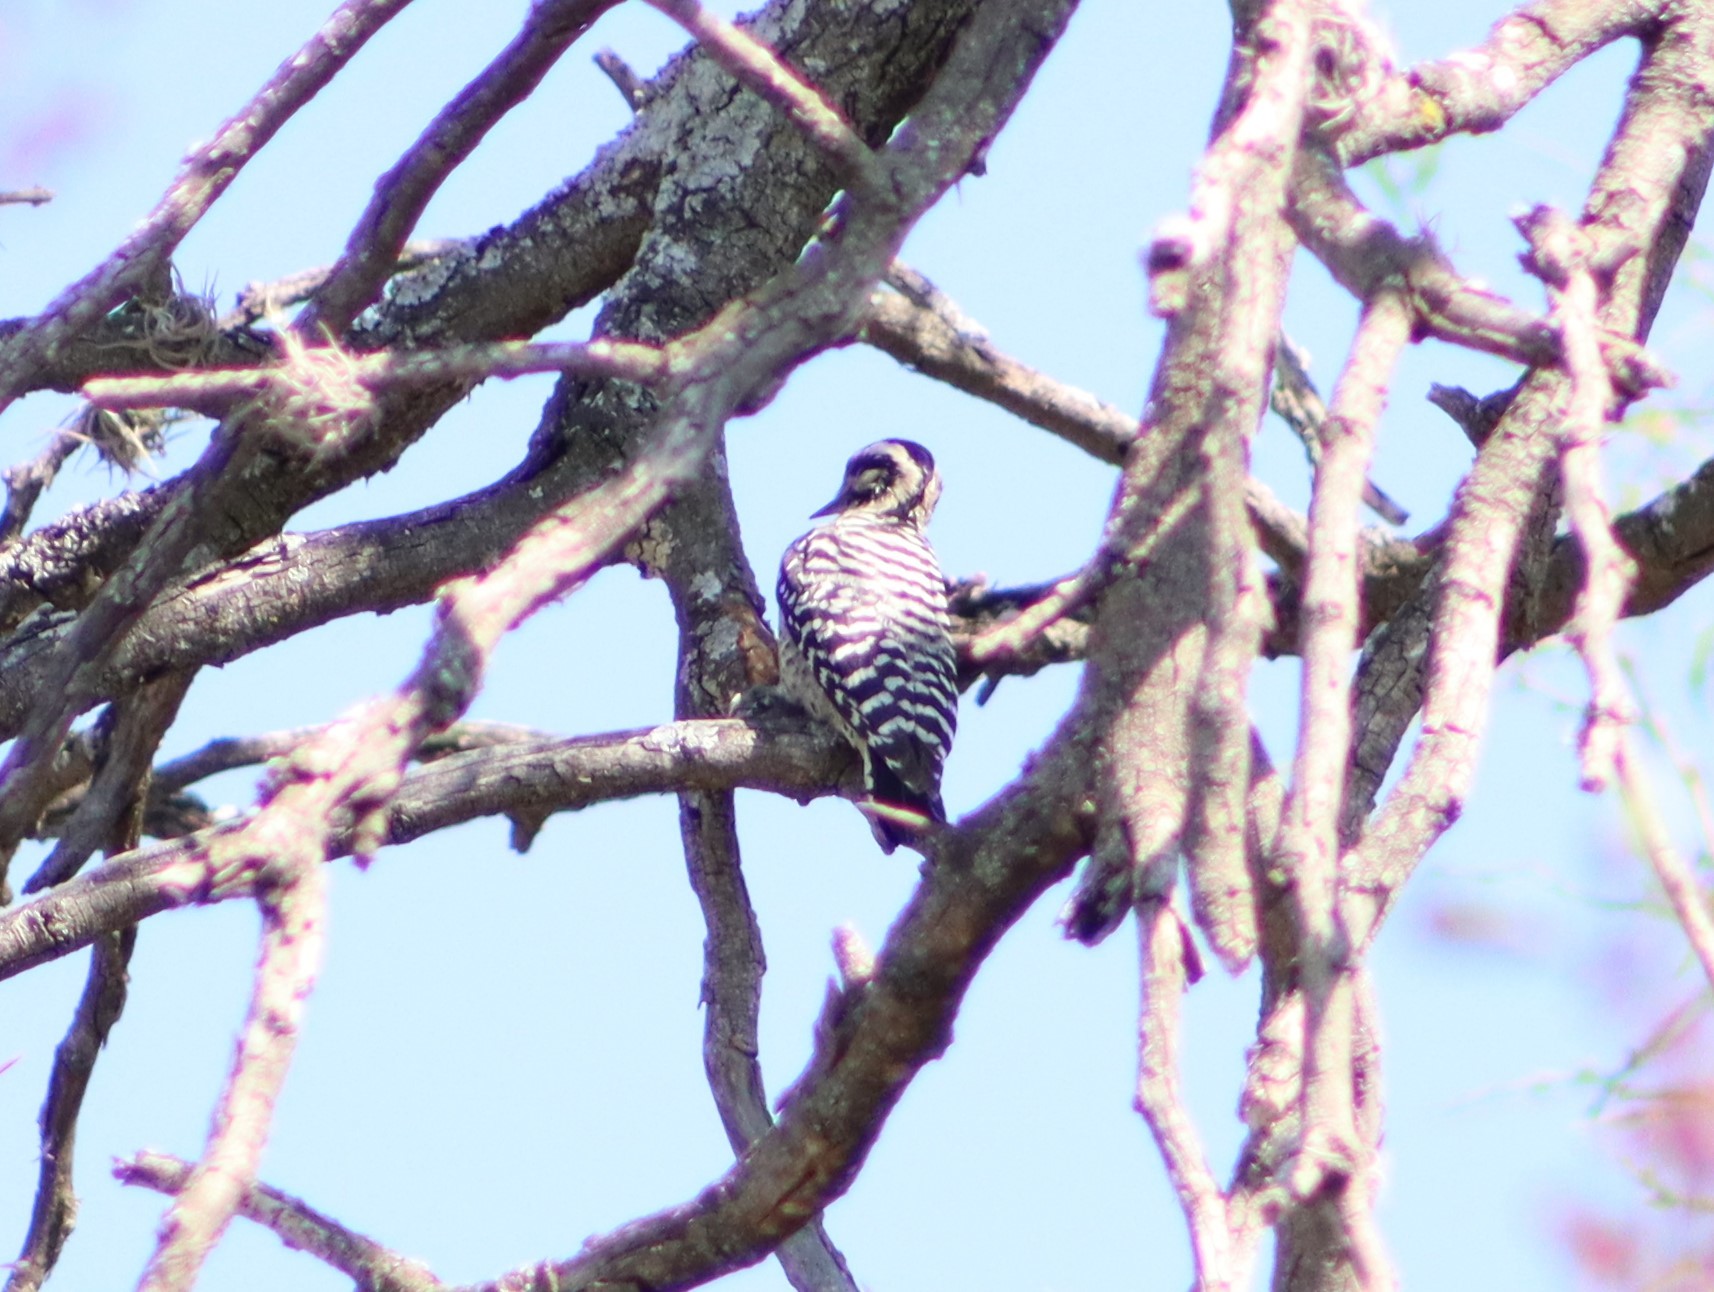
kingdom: Animalia
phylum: Chordata
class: Aves
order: Piciformes
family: Picidae
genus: Dryobates
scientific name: Dryobates scalaris
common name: Ladder-backed woodpecker
